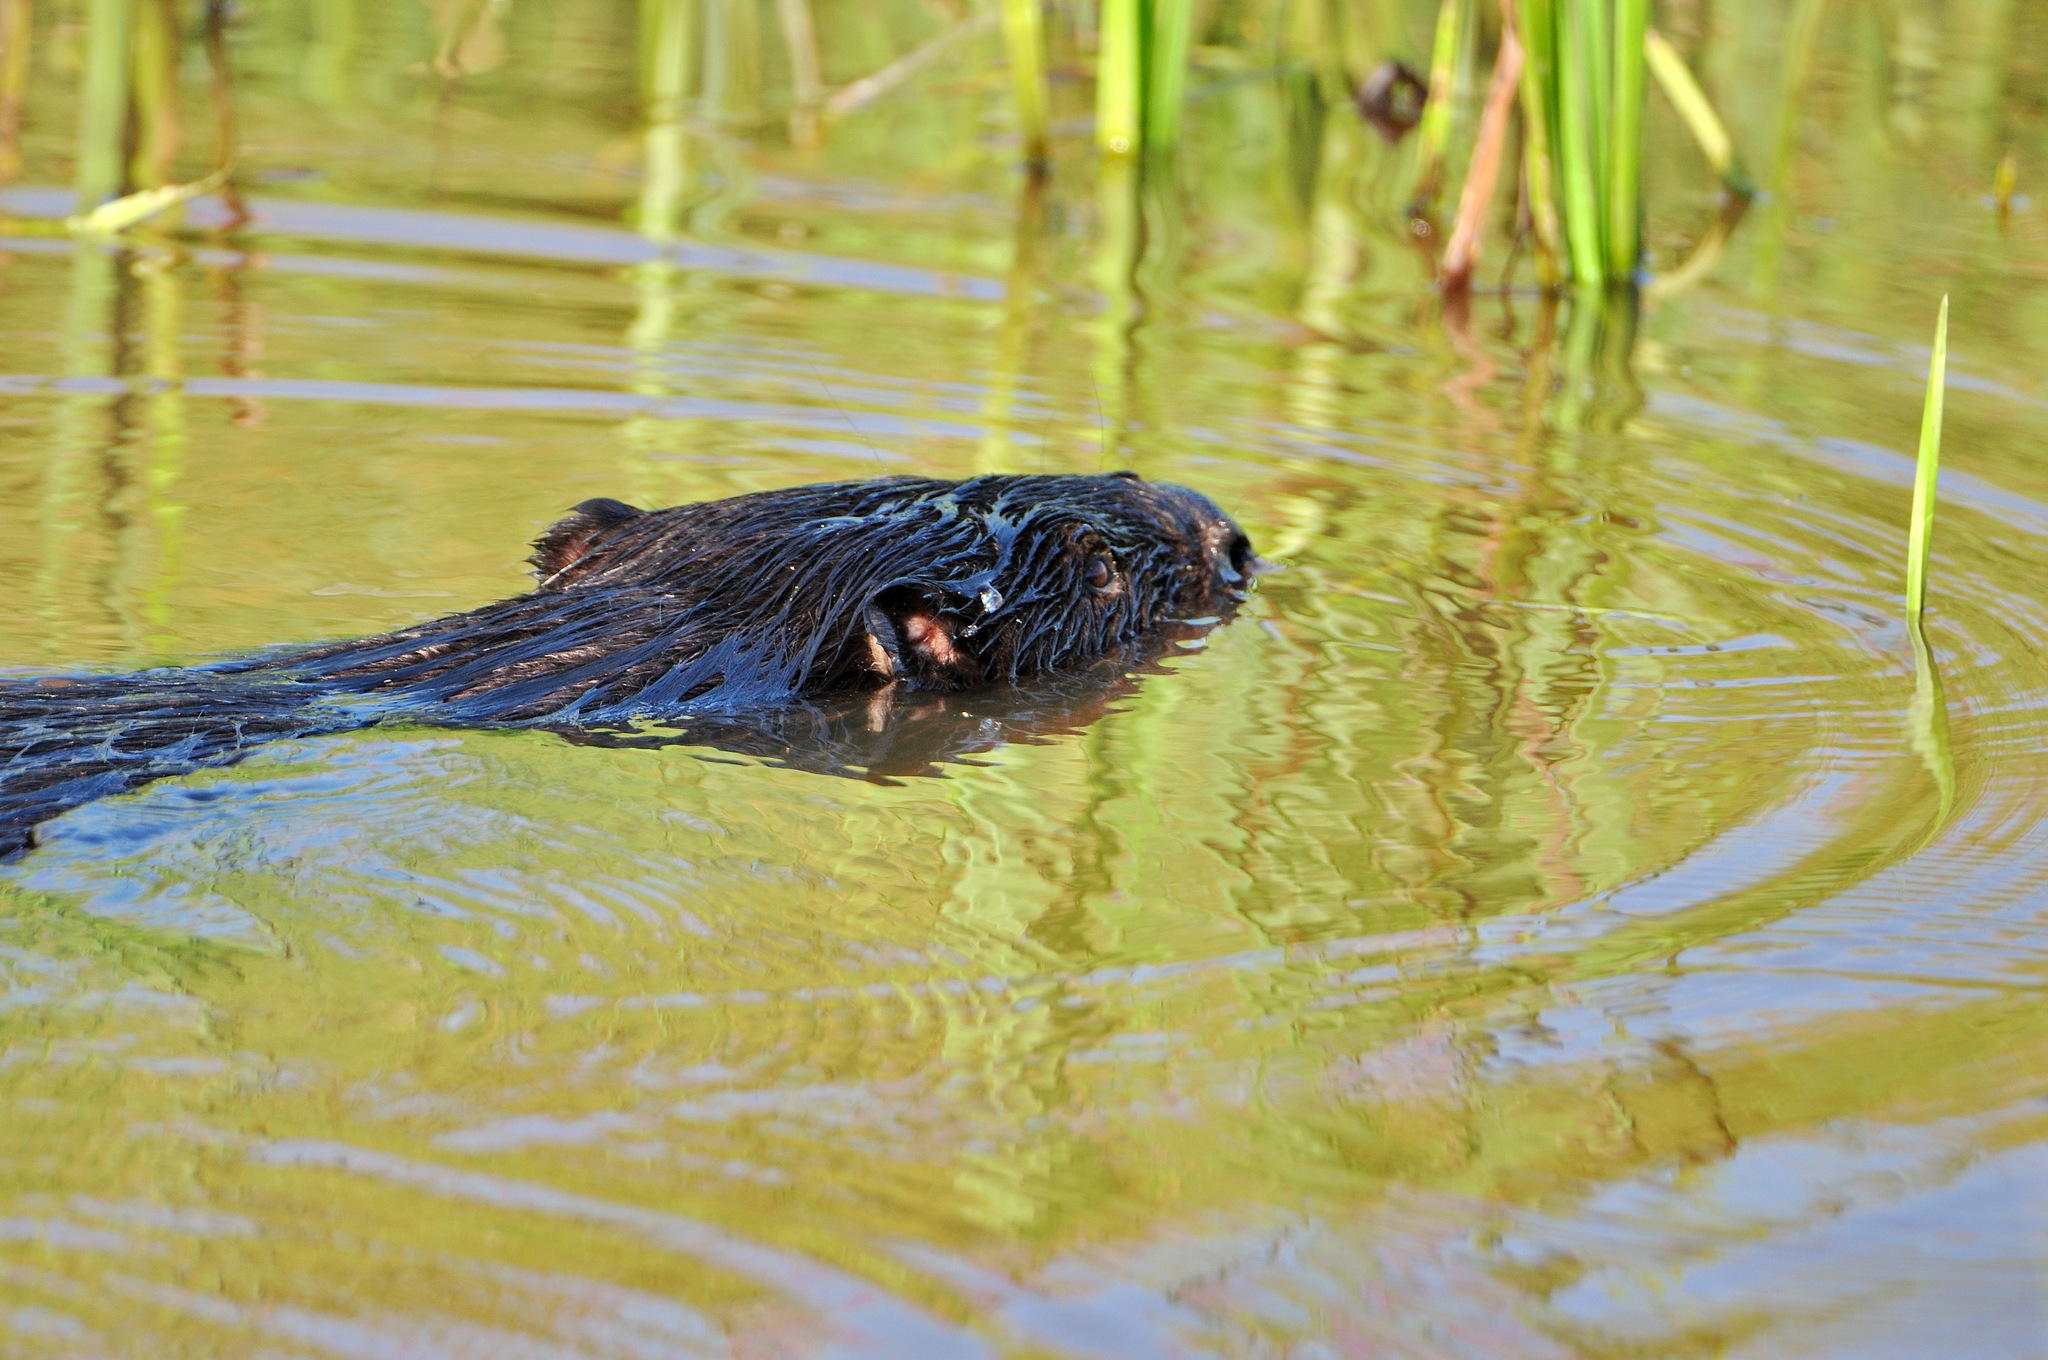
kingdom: Animalia
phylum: Chordata
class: Mammalia
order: Rodentia
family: Castoridae
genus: Castor
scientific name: Castor fiber
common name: Eurasian beaver
